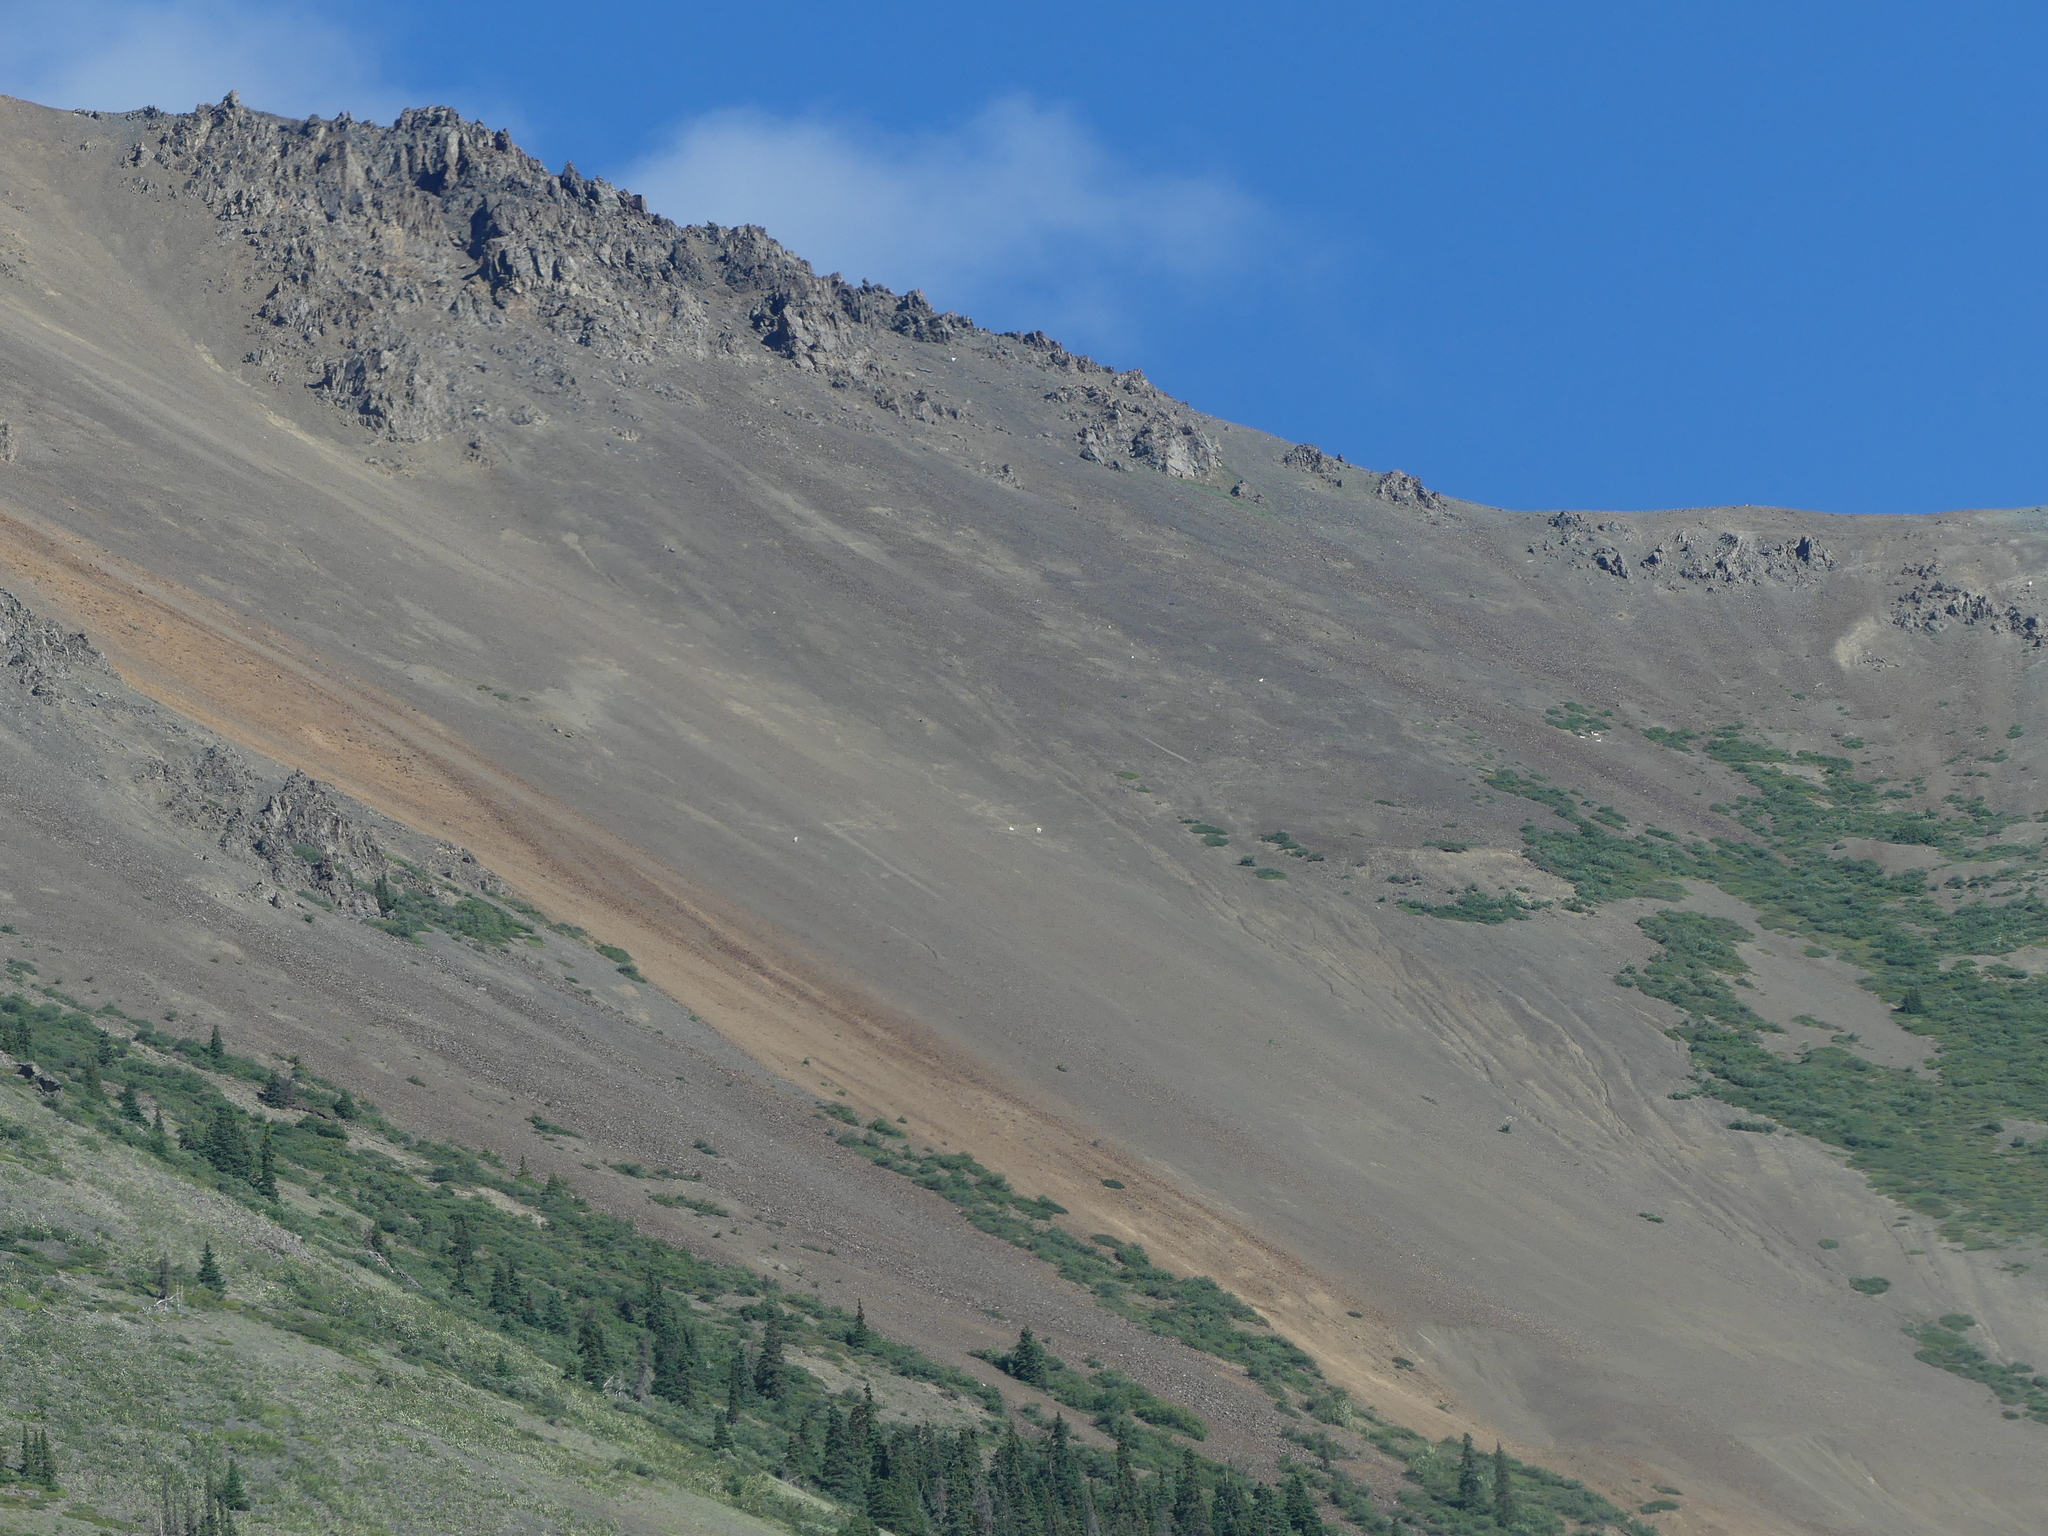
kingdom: Animalia
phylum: Chordata
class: Mammalia
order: Artiodactyla
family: Bovidae
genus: Ovis
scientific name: Ovis dalli
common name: Dall's sheep
